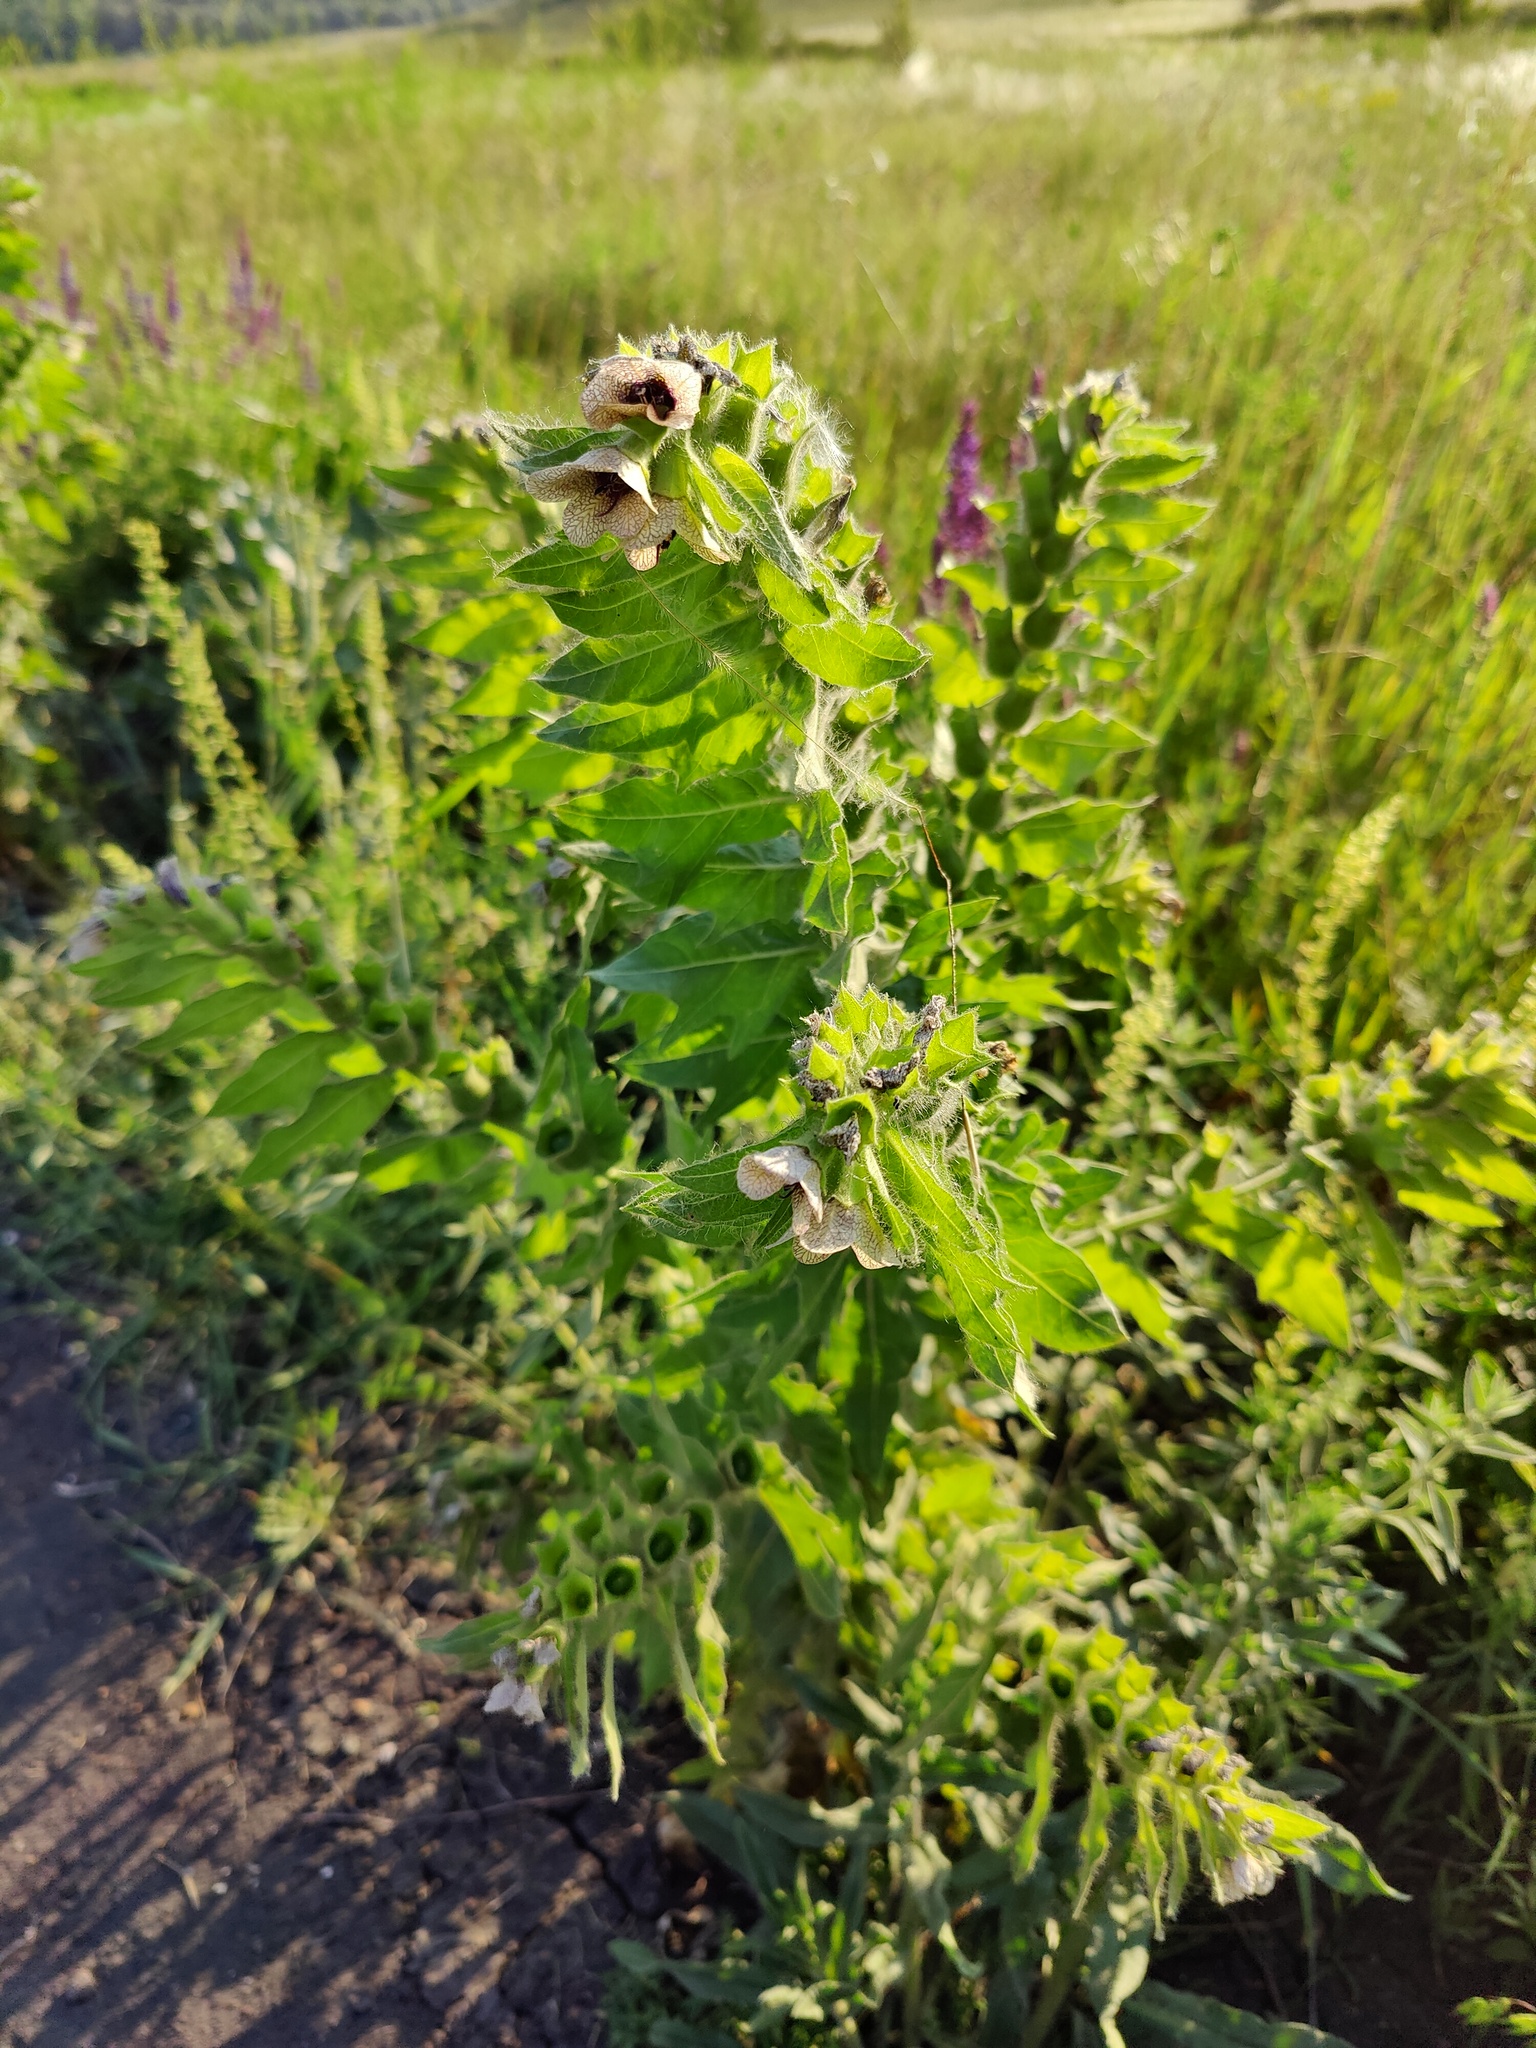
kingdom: Plantae
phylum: Tracheophyta
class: Magnoliopsida
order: Solanales
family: Solanaceae
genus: Hyoscyamus
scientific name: Hyoscyamus niger
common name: Henbane
